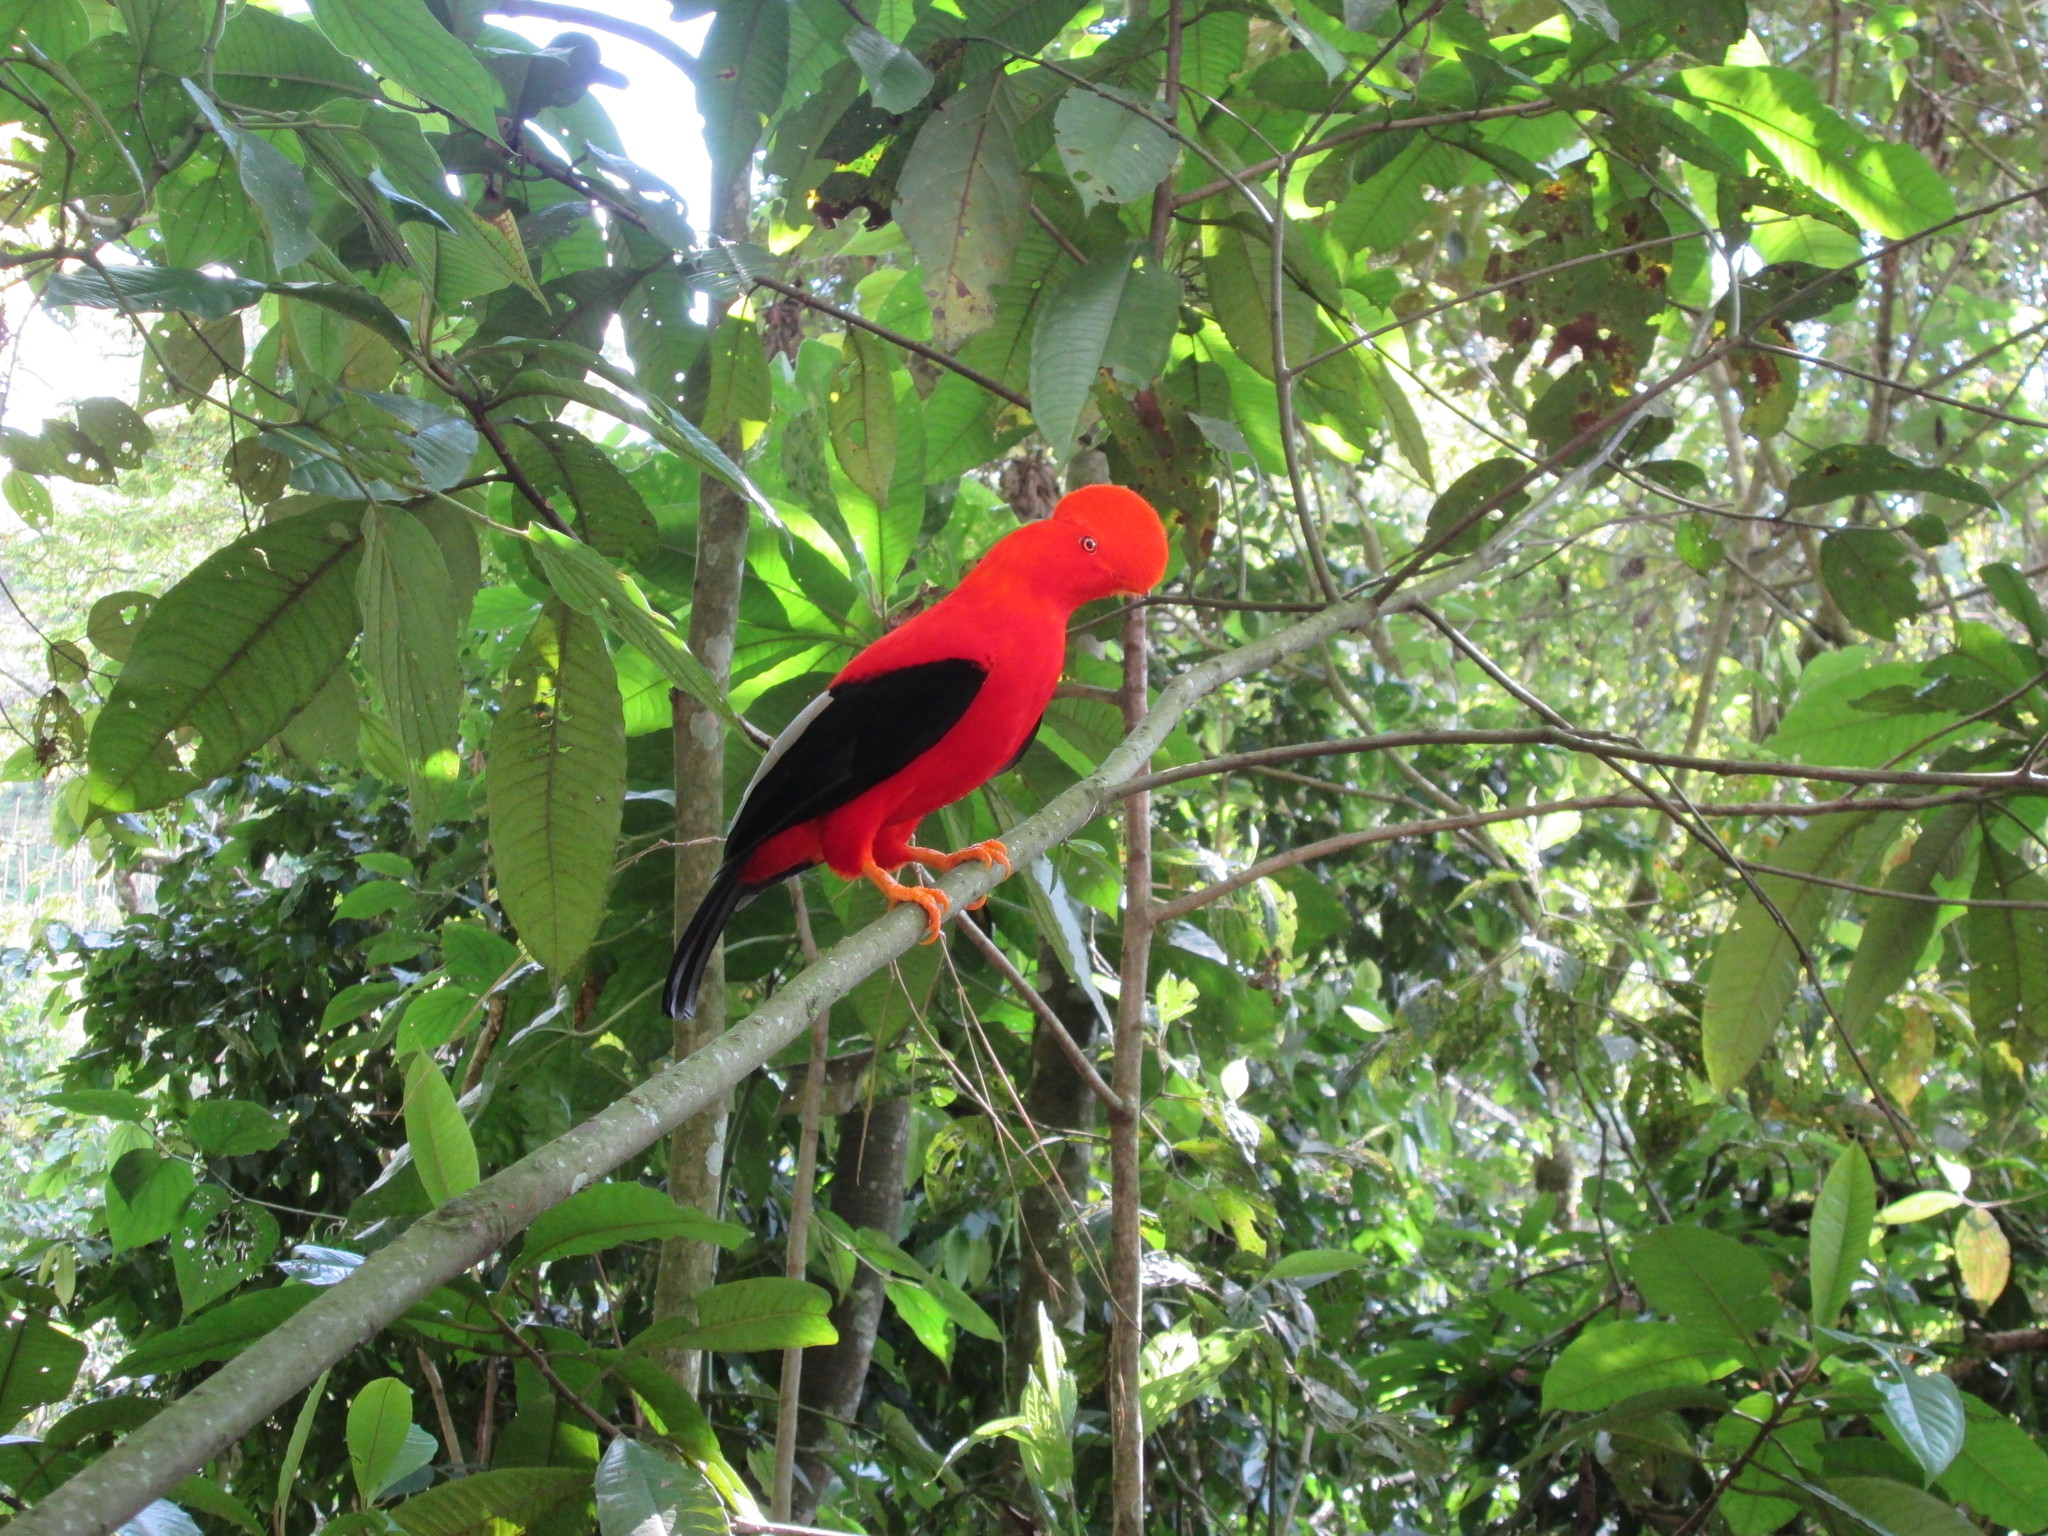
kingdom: Animalia
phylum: Chordata
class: Aves
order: Passeriformes
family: Cotingidae
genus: Rupicola
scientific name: Rupicola peruvianus
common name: Andean cock-of-the-rock
